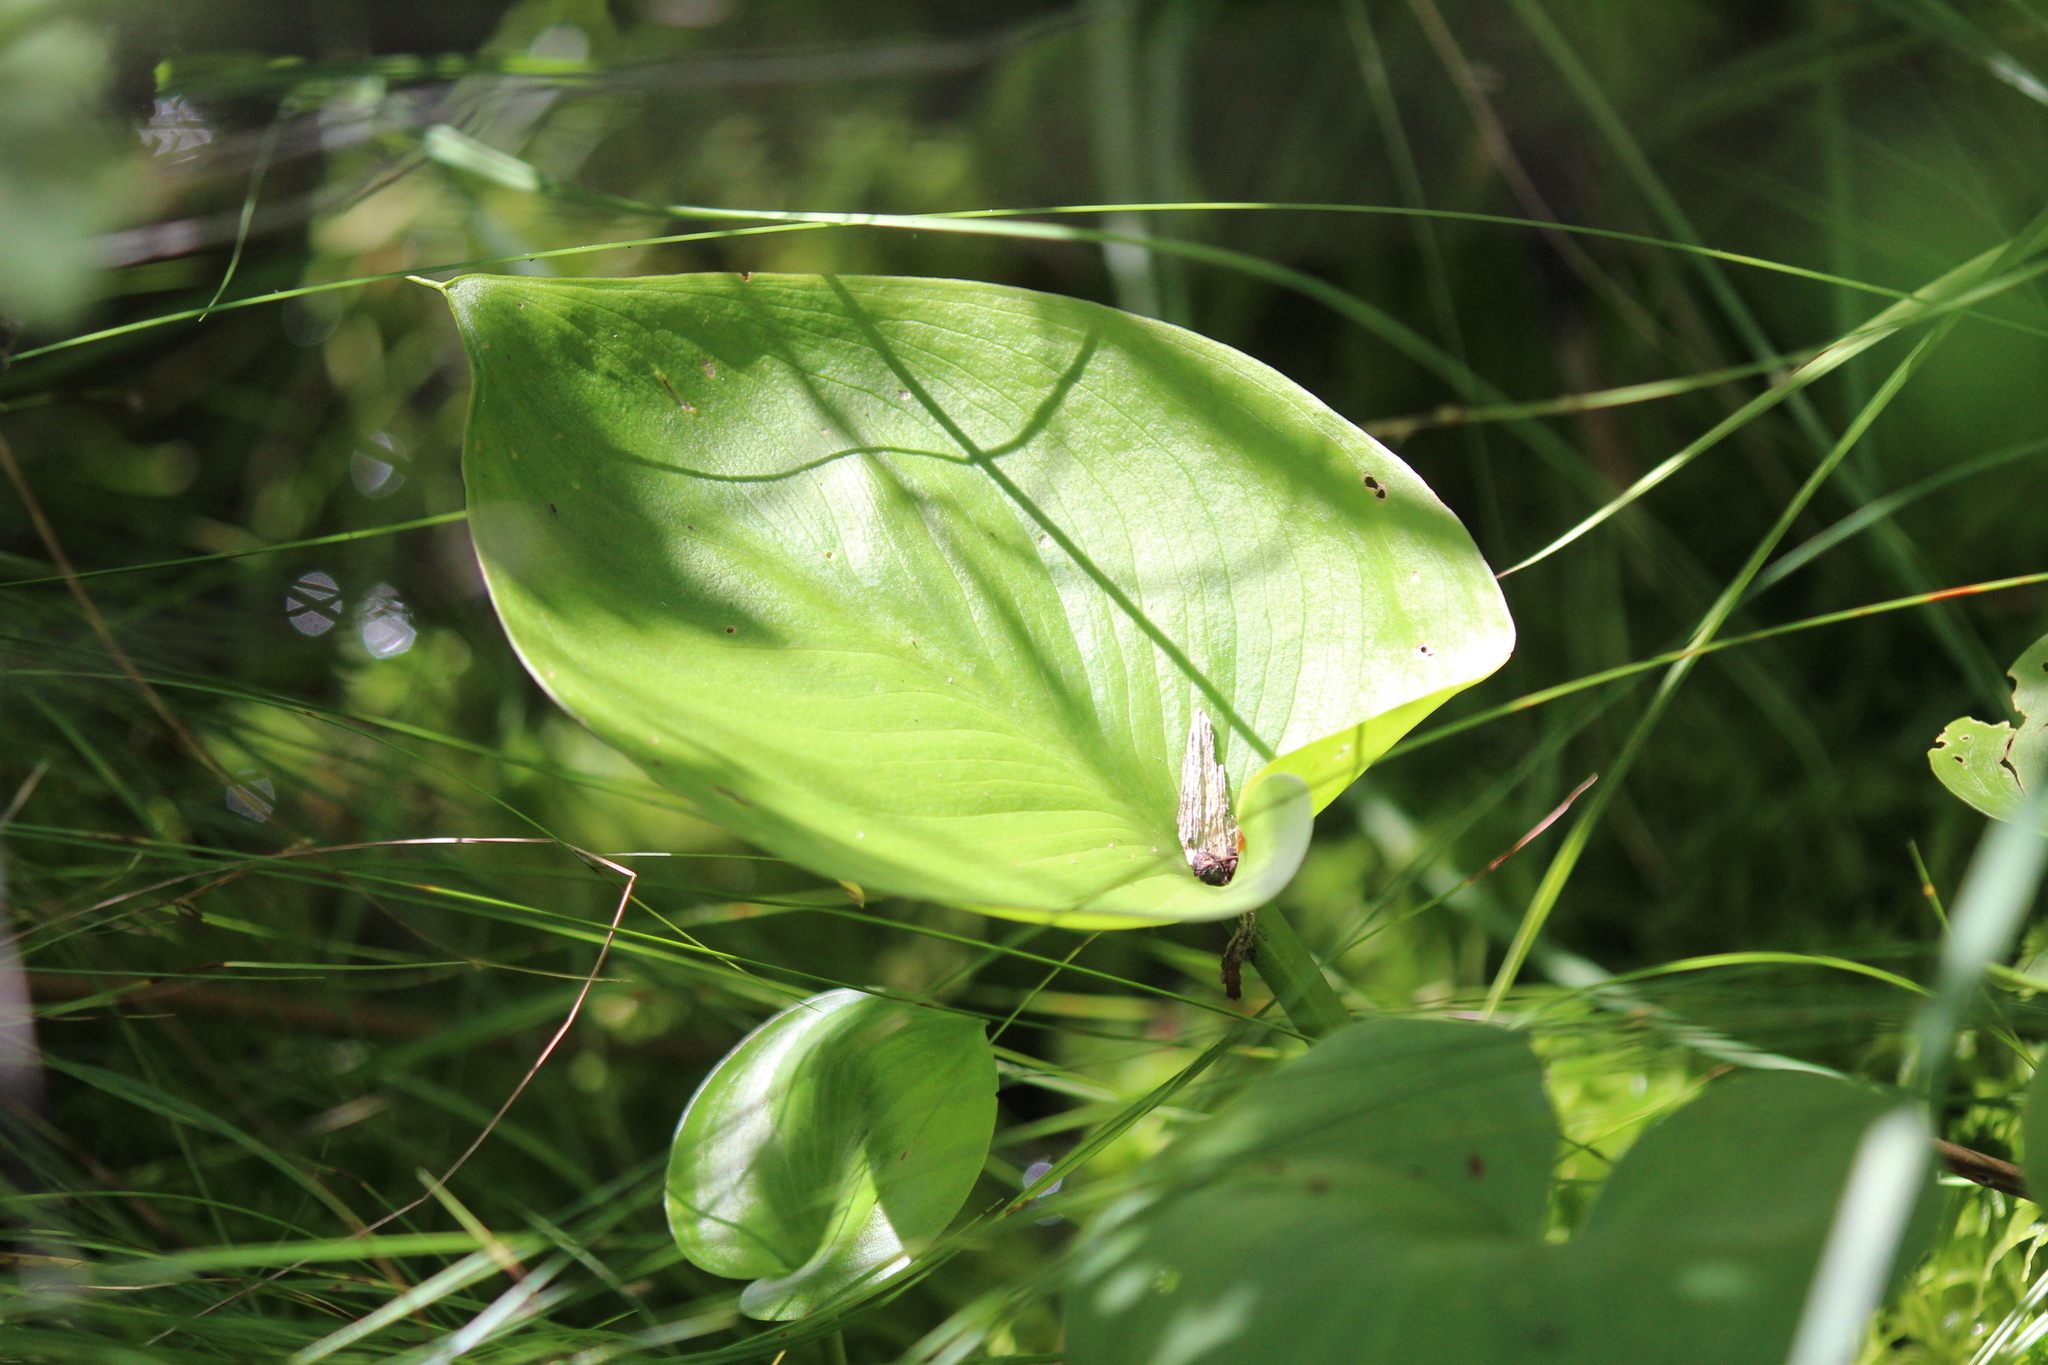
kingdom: Plantae
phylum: Tracheophyta
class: Liliopsida
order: Alismatales
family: Araceae
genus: Calla
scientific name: Calla palustris
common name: Bog arum
